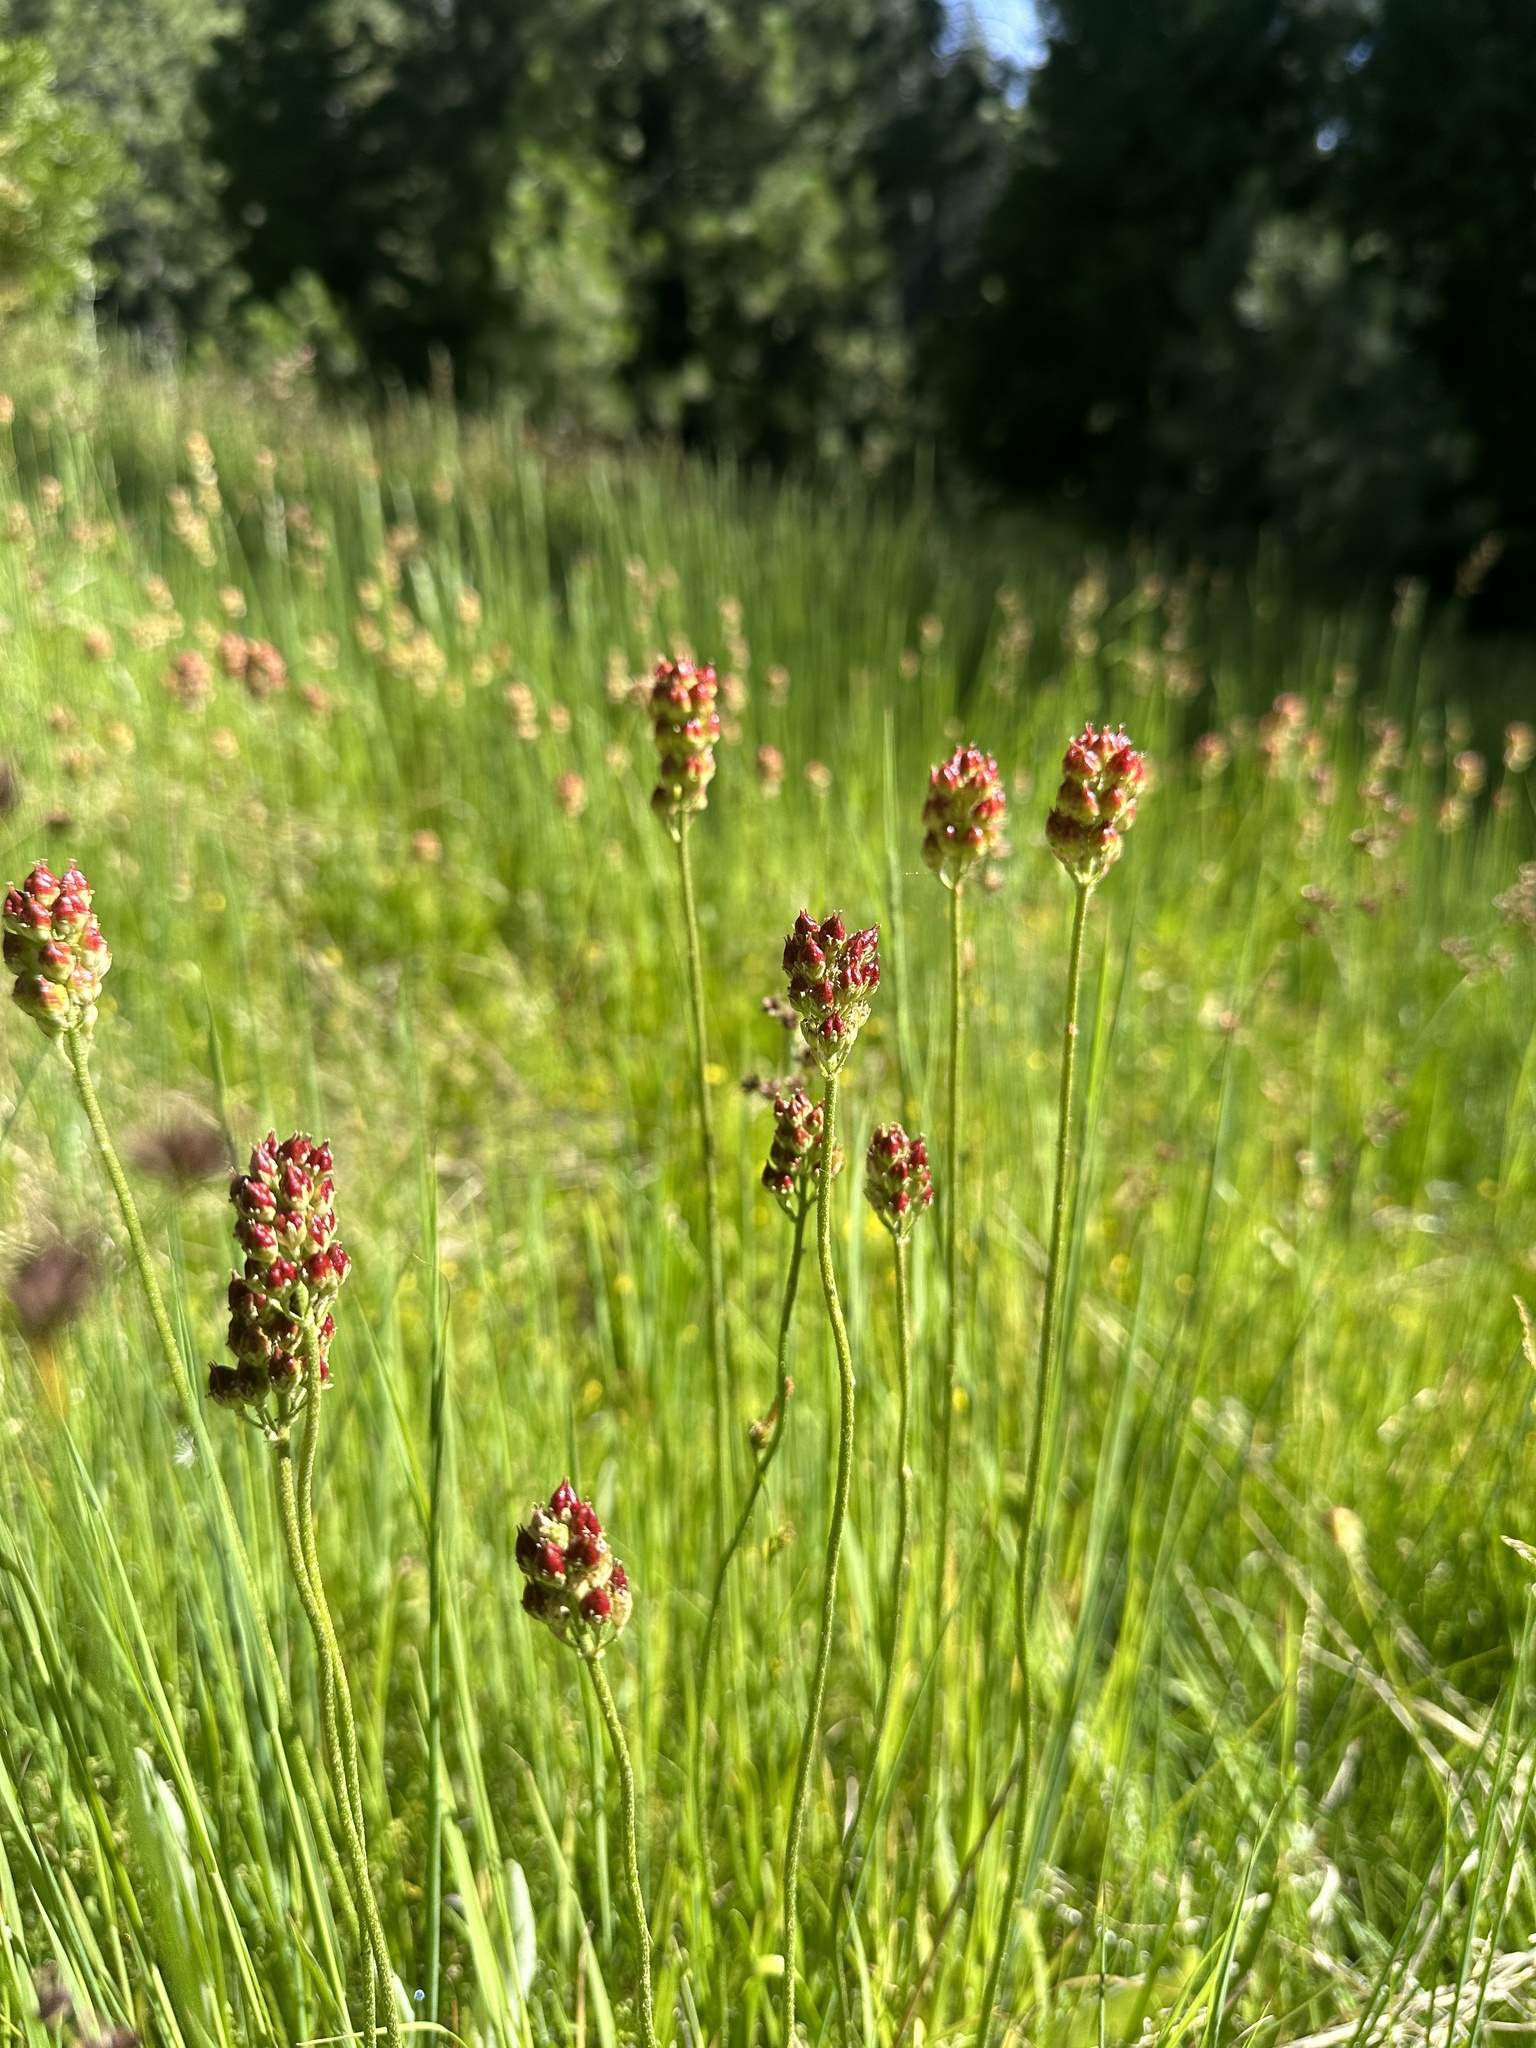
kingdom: Plantae
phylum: Tracheophyta
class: Liliopsida
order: Alismatales
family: Tofieldiaceae
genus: Triantha
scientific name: Triantha occidentalis
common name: Western false asphodel
